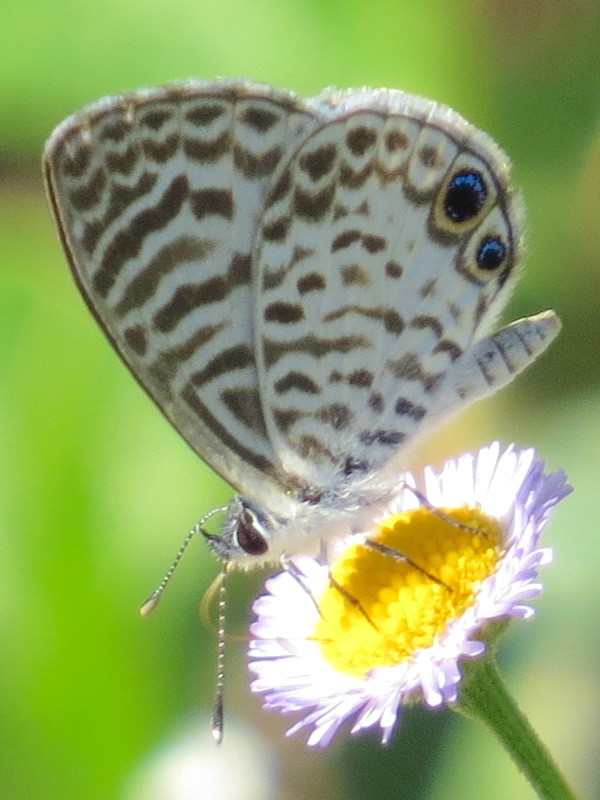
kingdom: Animalia
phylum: Arthropoda
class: Insecta
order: Lepidoptera
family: Lycaenidae
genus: Leptotes
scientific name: Leptotes cassius
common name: Cassius blue
